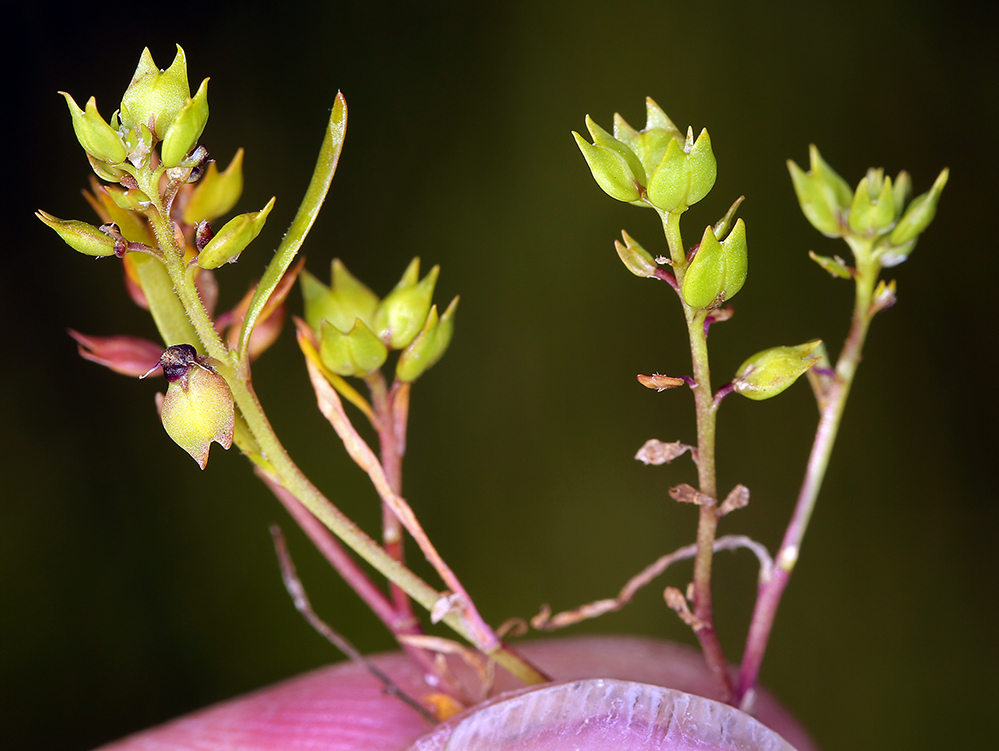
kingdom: Plantae
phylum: Tracheophyta
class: Magnoliopsida
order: Brassicales
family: Brassicaceae
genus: Lepidium
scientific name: Lepidium acutidens
